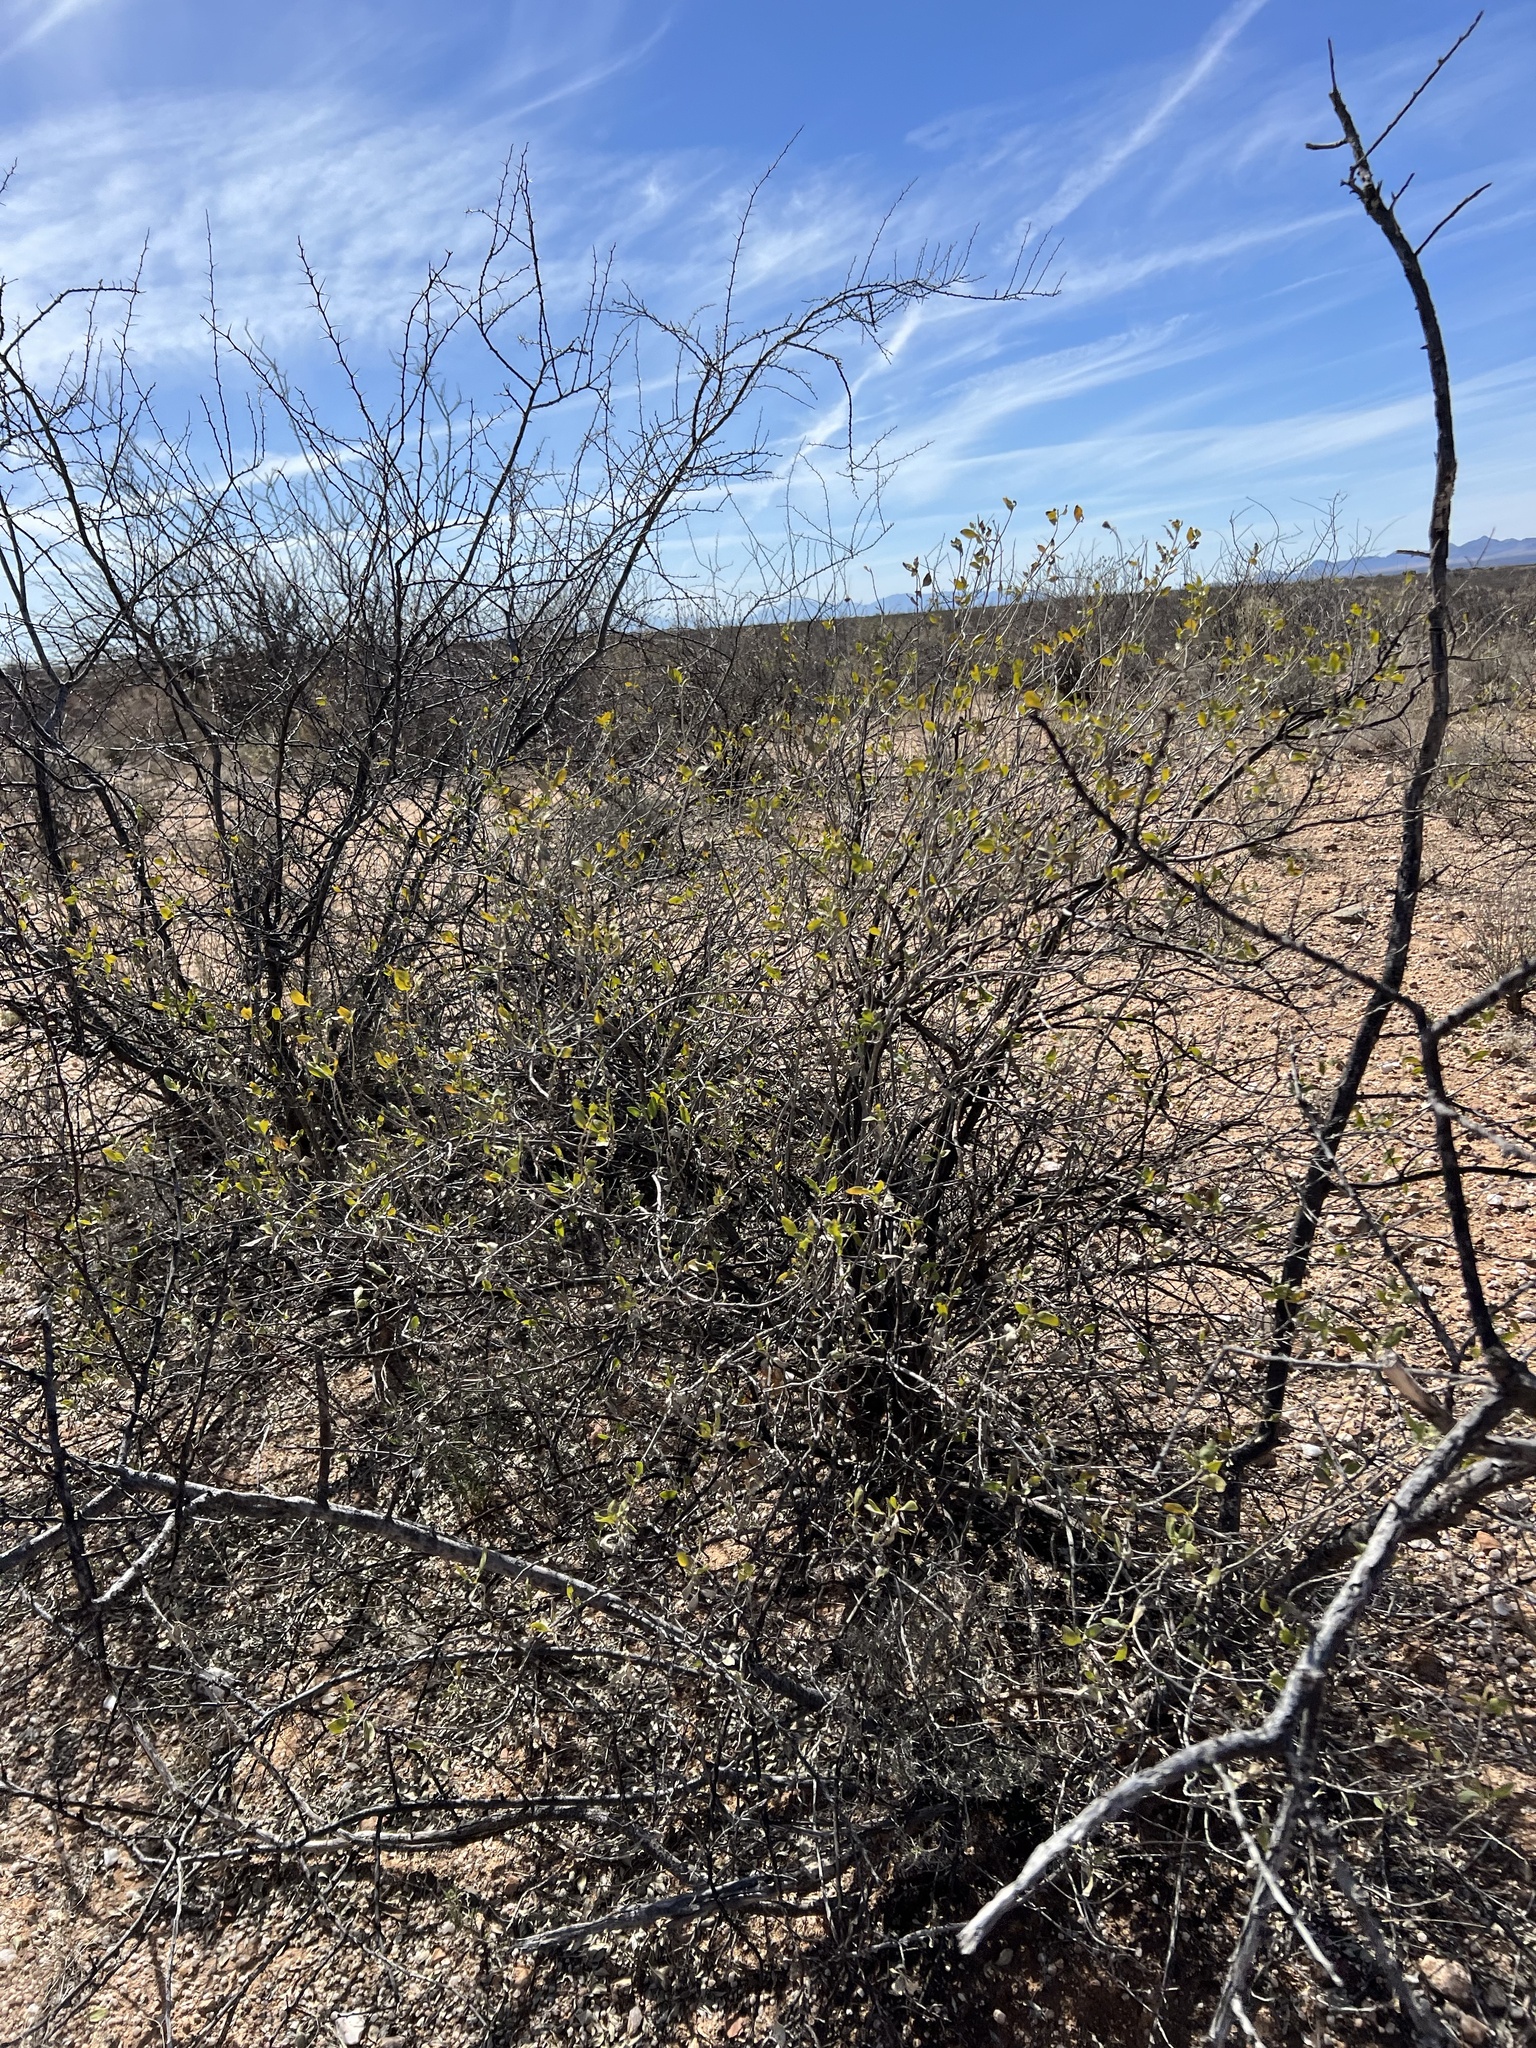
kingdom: Plantae
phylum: Tracheophyta
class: Magnoliopsida
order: Asterales
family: Asteraceae
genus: Flourensia
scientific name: Flourensia cernua
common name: Varnishbush
